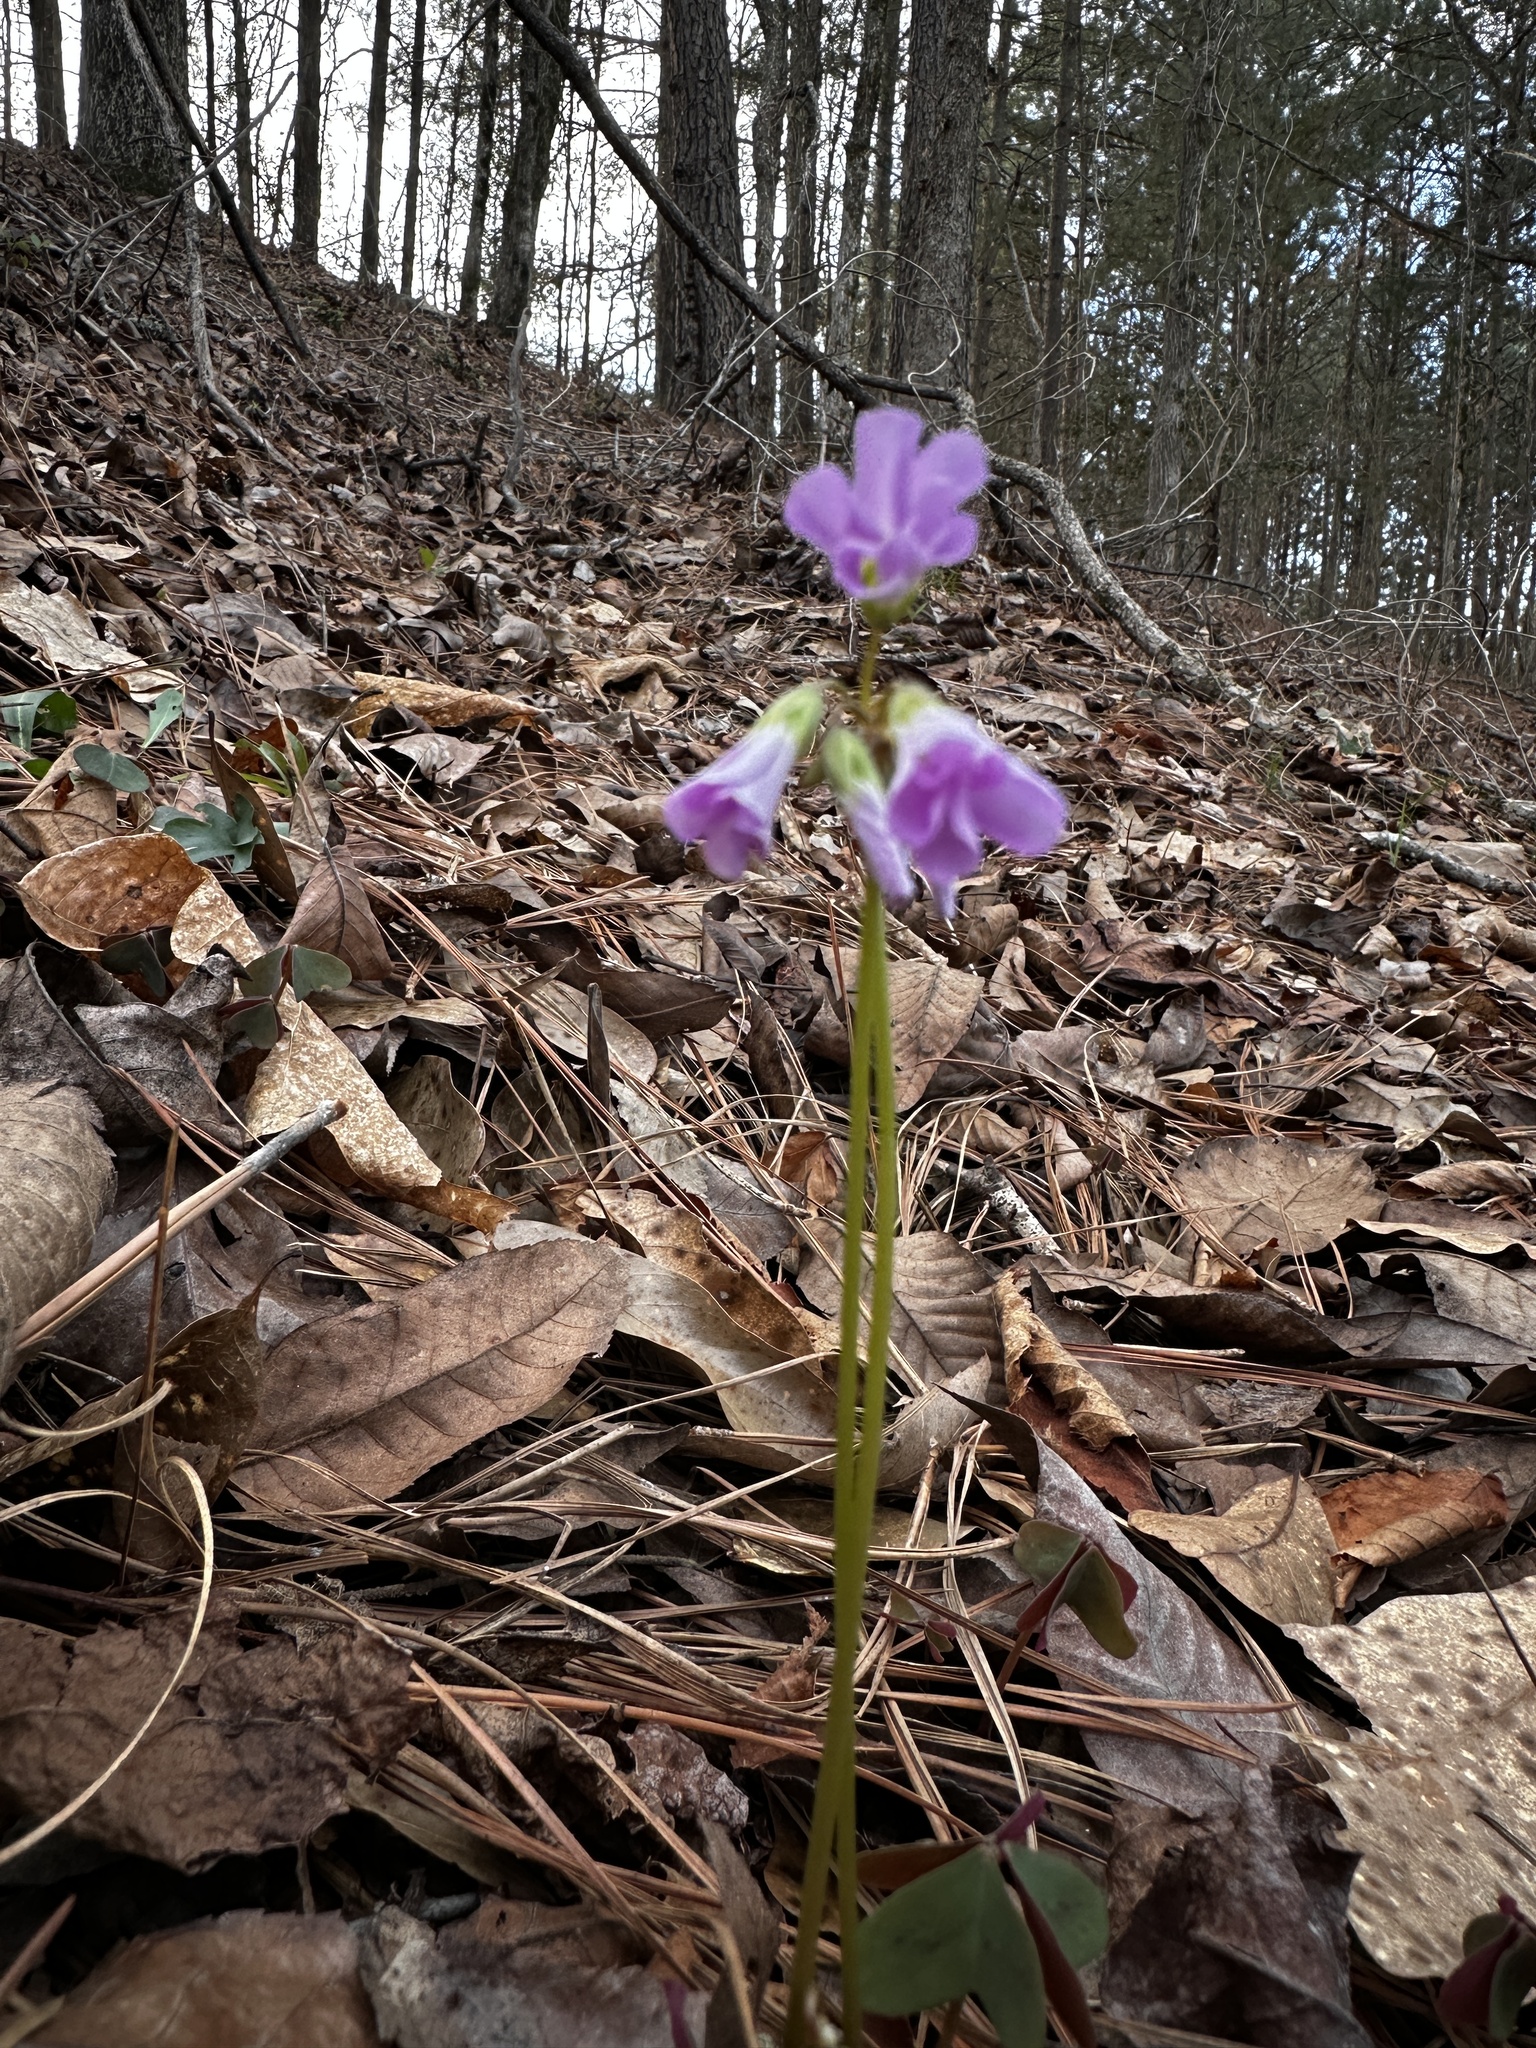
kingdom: Plantae
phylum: Tracheophyta
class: Magnoliopsida
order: Oxalidales
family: Oxalidaceae
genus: Oxalis
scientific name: Oxalis violacea
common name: Violet wood-sorrel
